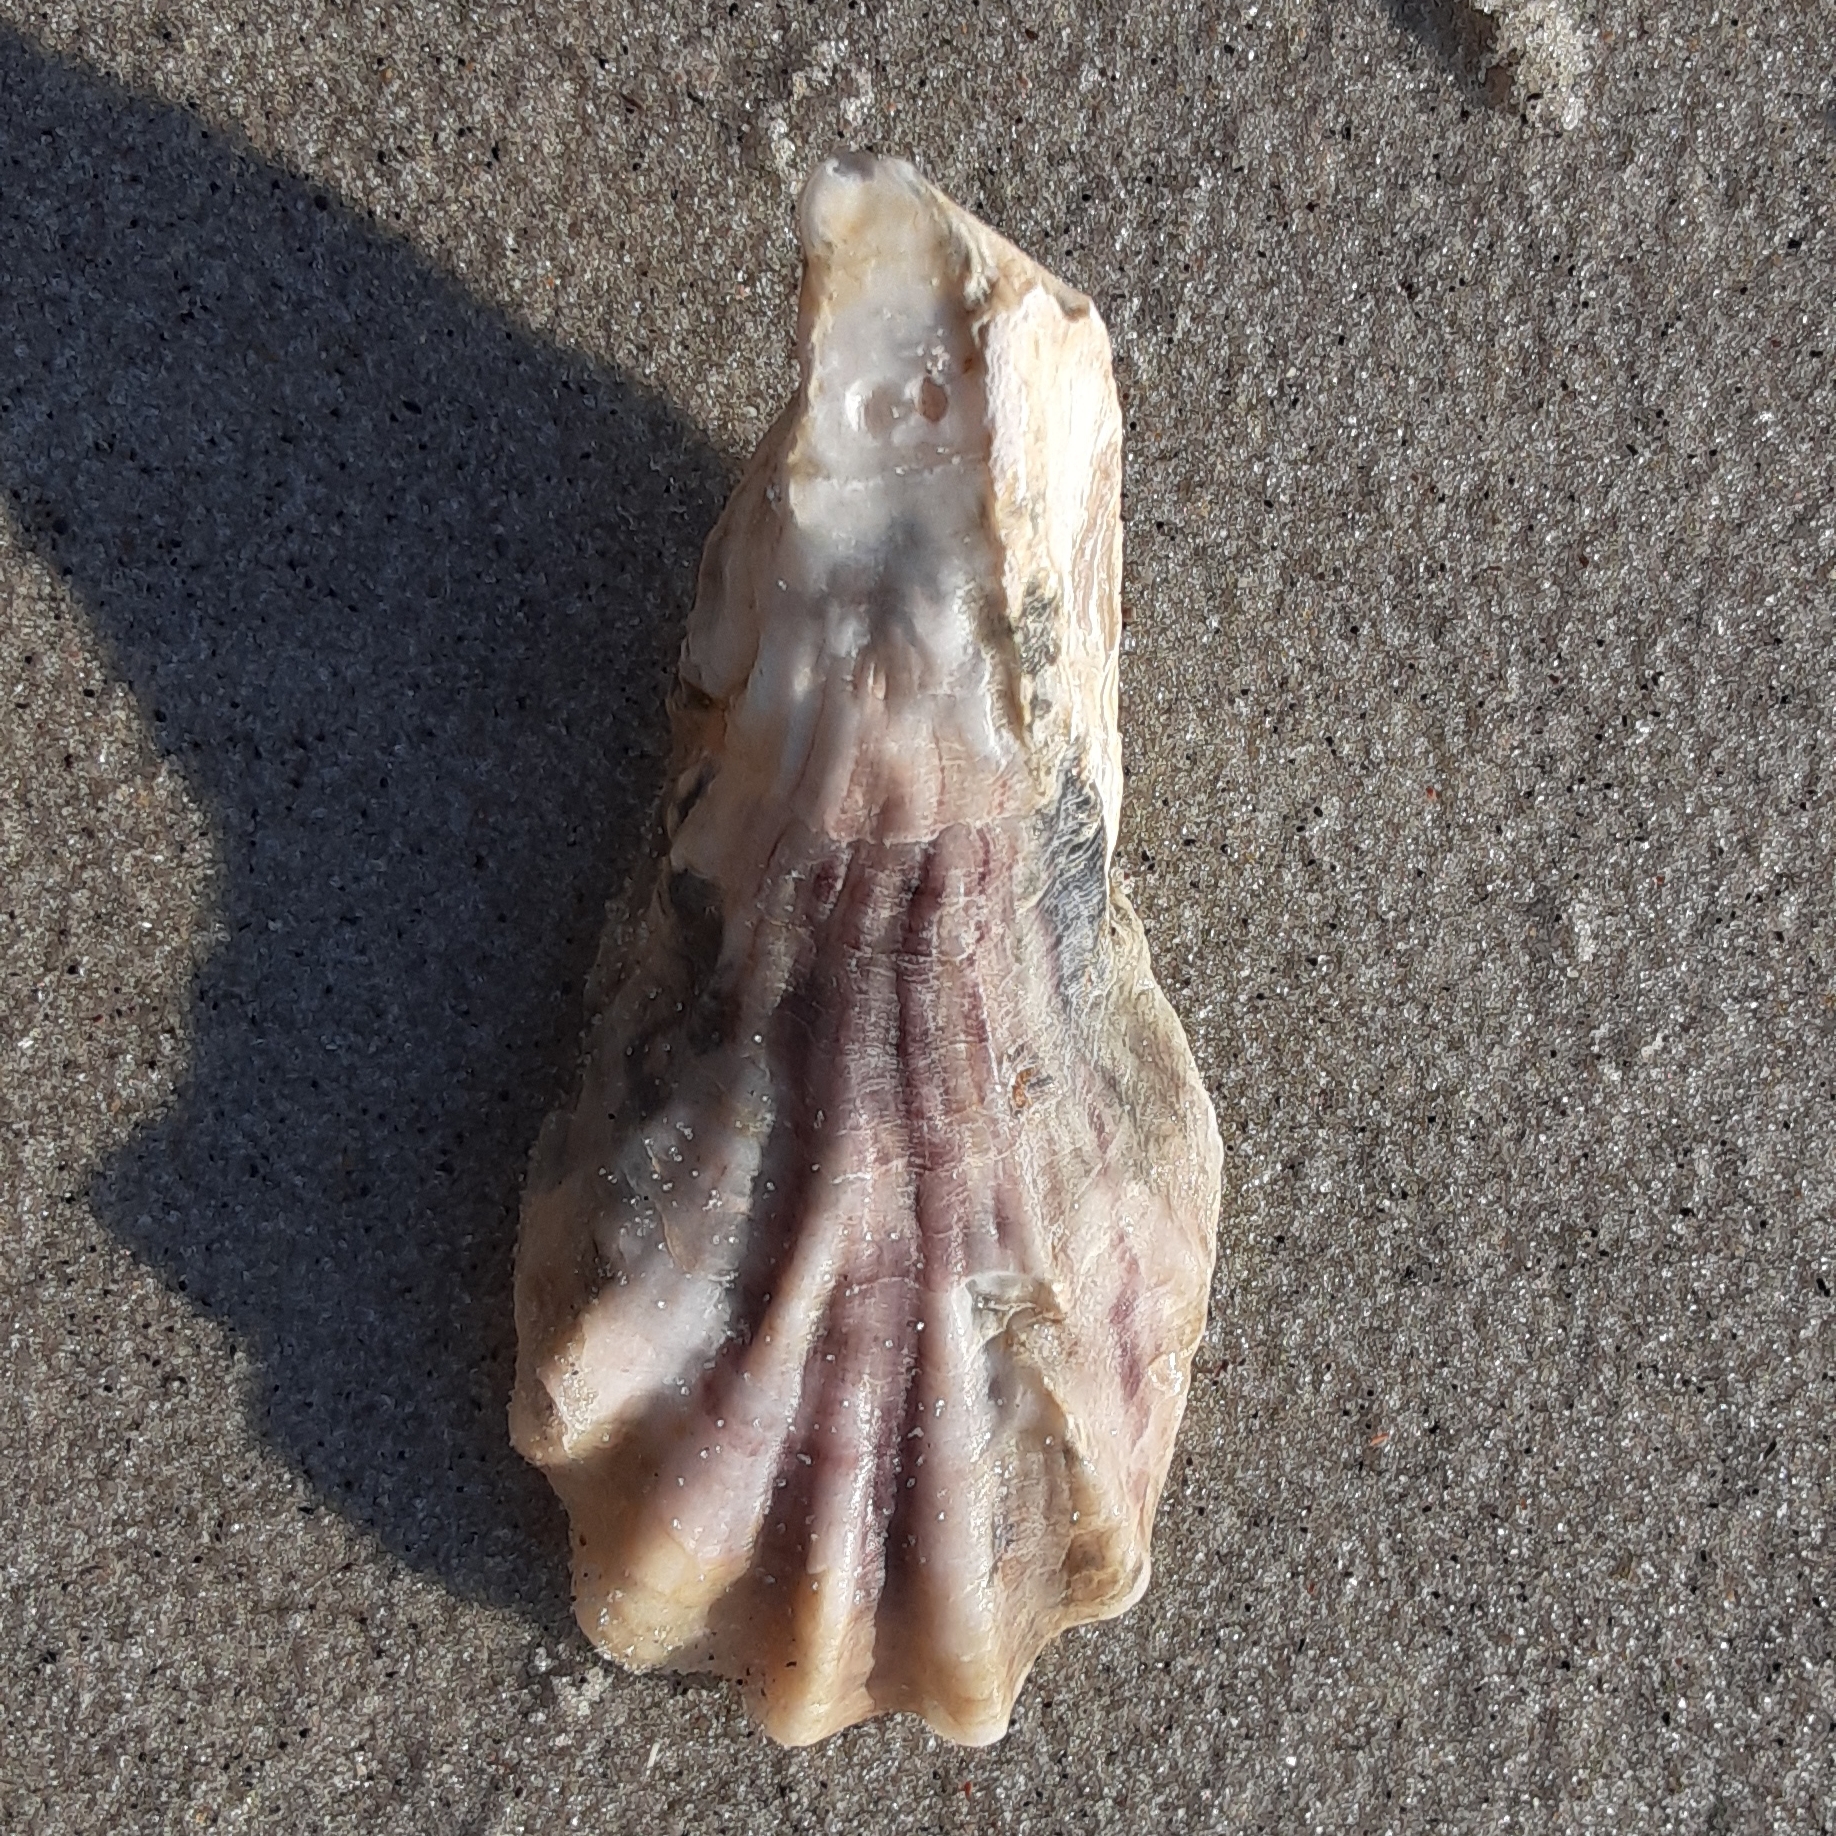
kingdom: Animalia
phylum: Mollusca
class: Bivalvia
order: Ostreida
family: Ostreidae
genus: Crassostrea
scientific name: Crassostrea virginica
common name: American oyster
